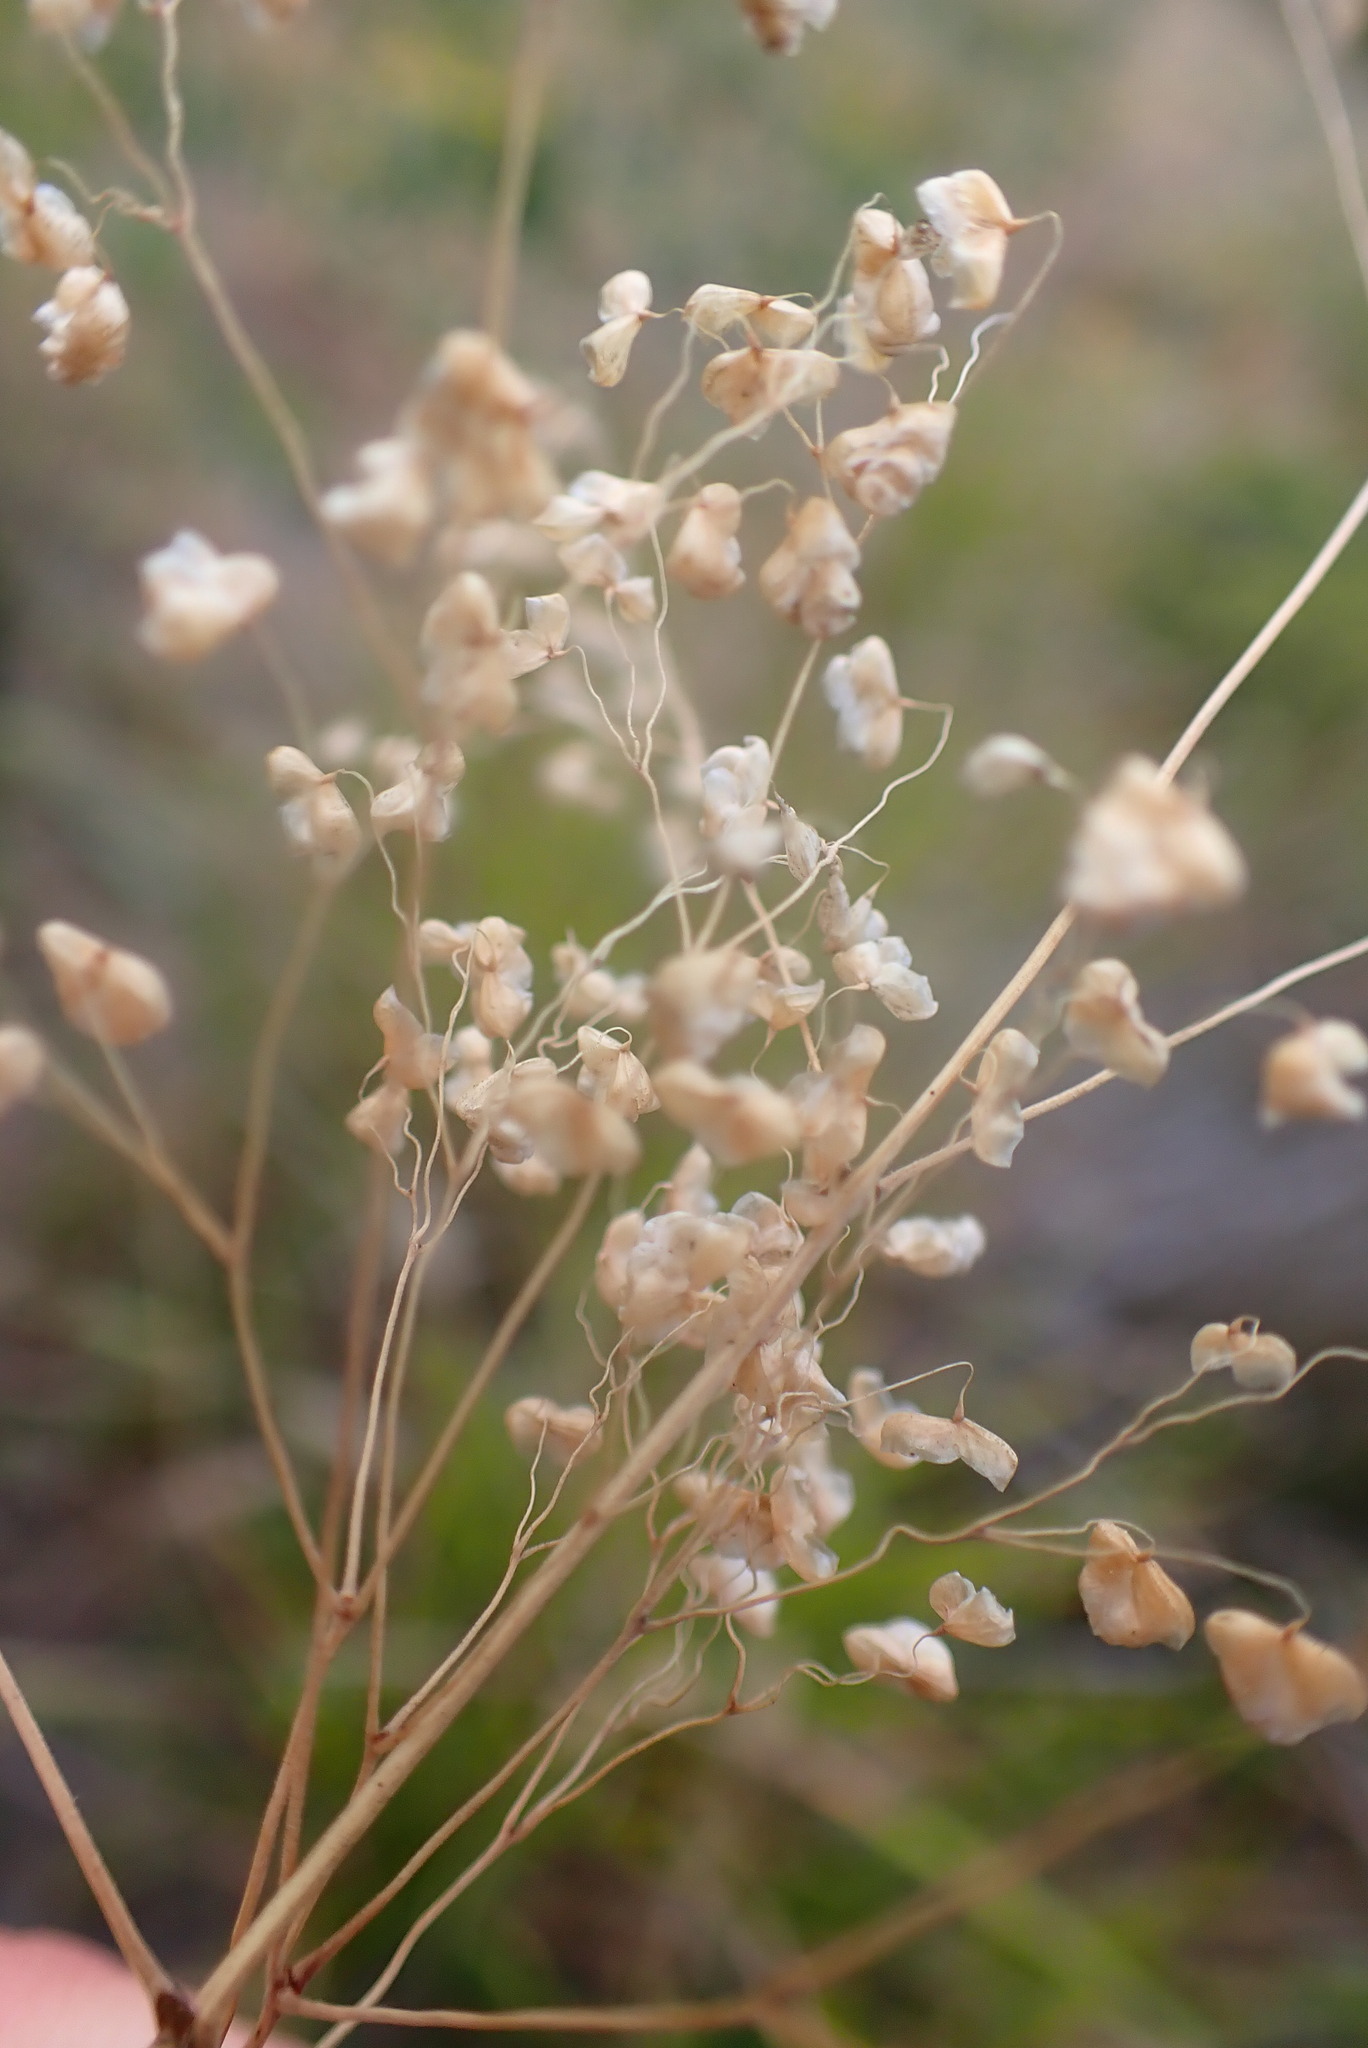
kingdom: Plantae
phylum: Tracheophyta
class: Liliopsida
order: Poales
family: Poaceae
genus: Briza
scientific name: Briza minor
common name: Lesser quaking-grass
